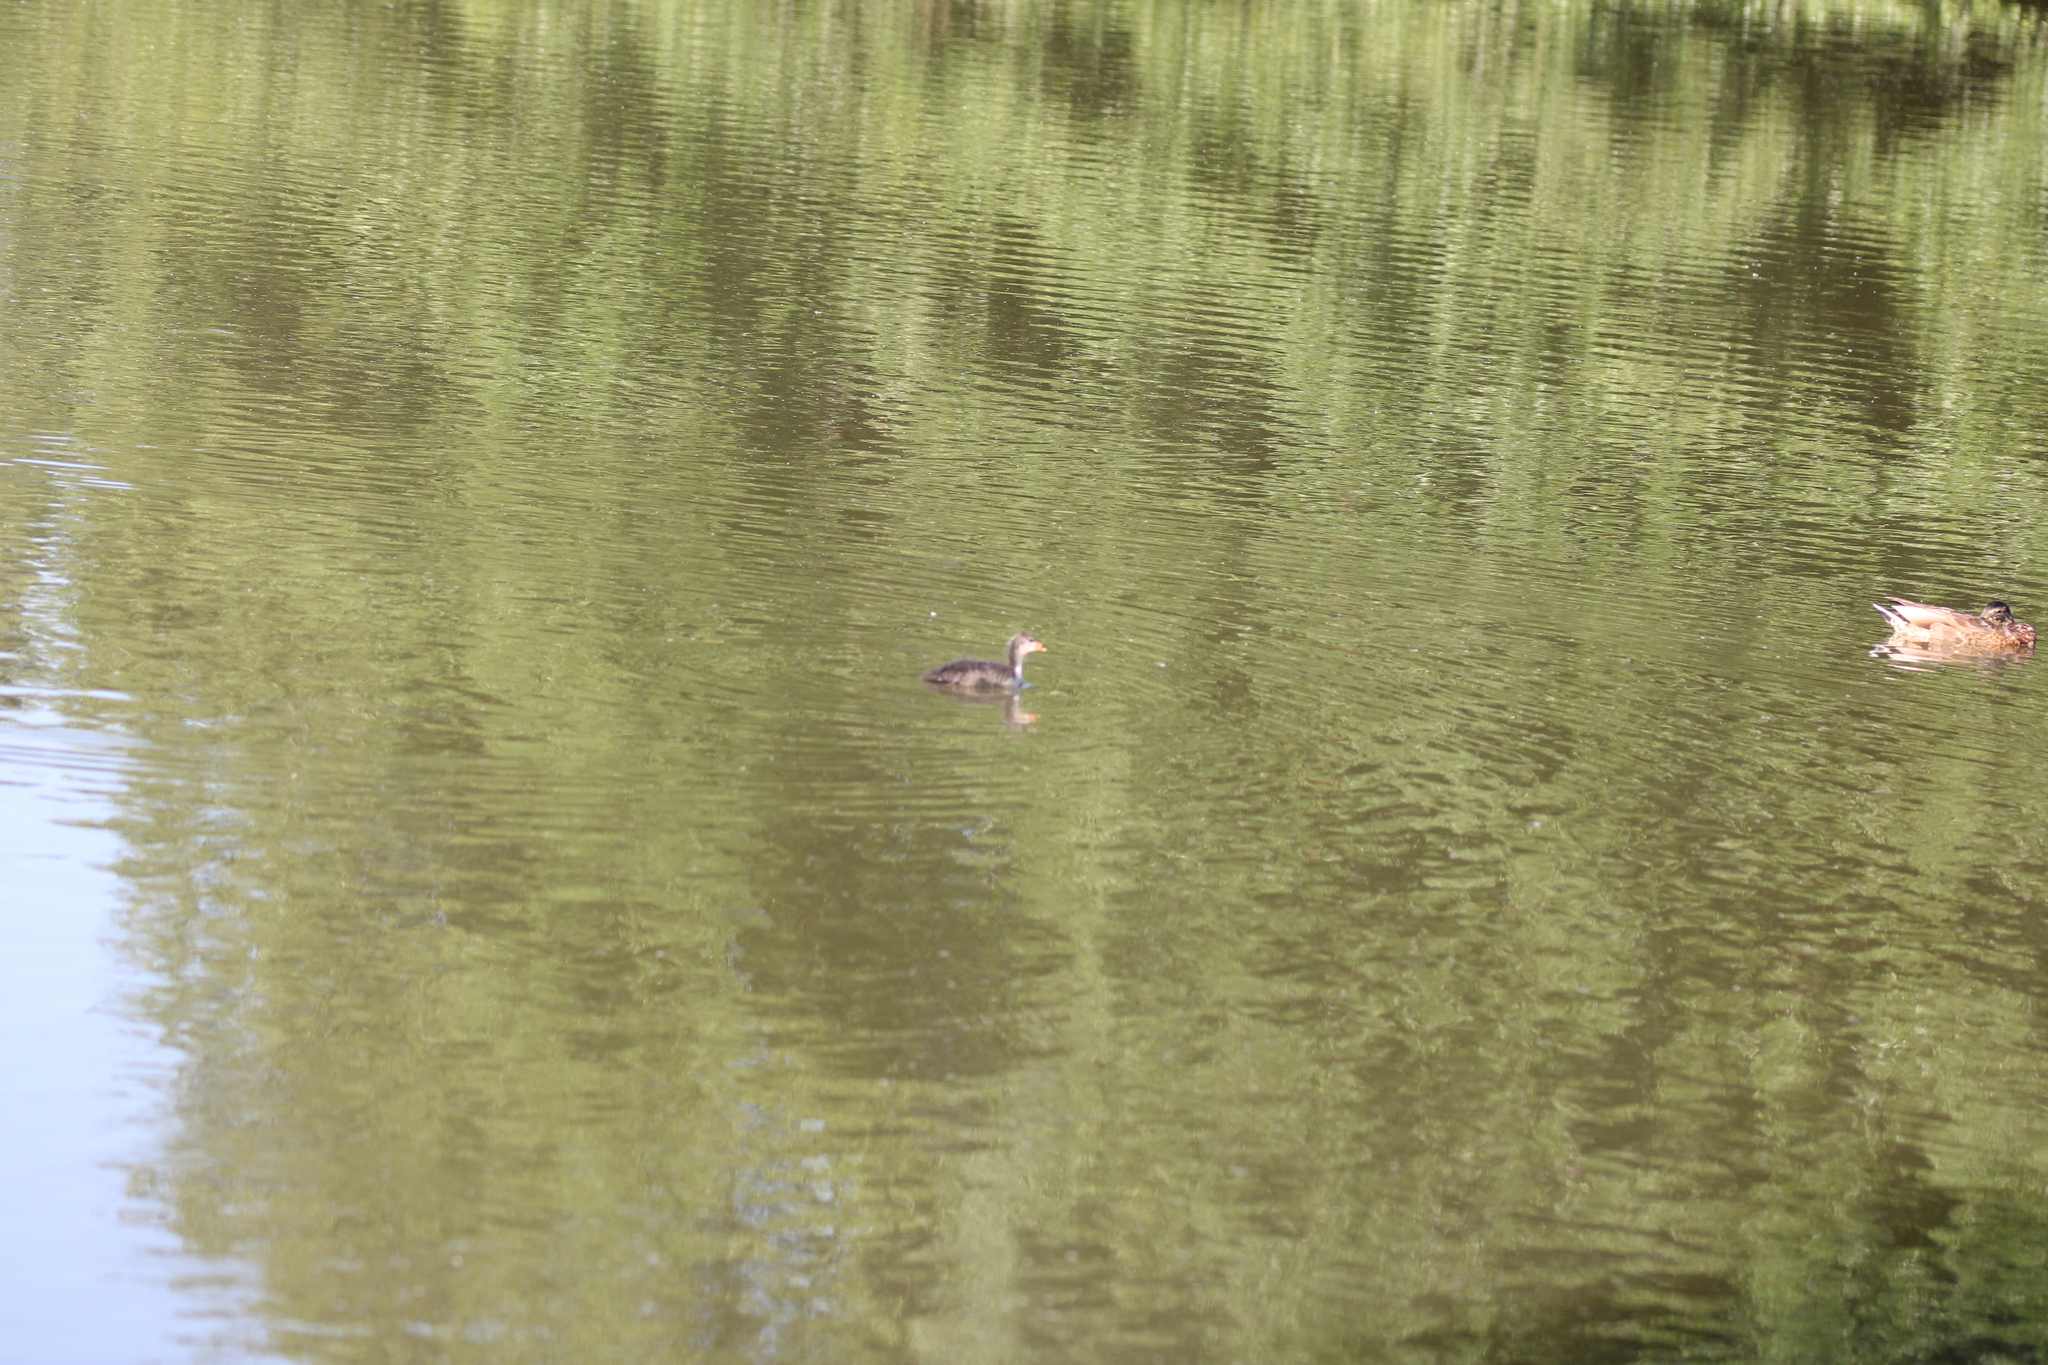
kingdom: Animalia
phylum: Chordata
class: Aves
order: Gruiformes
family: Rallidae
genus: Fulica
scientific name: Fulica atra
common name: Eurasian coot
